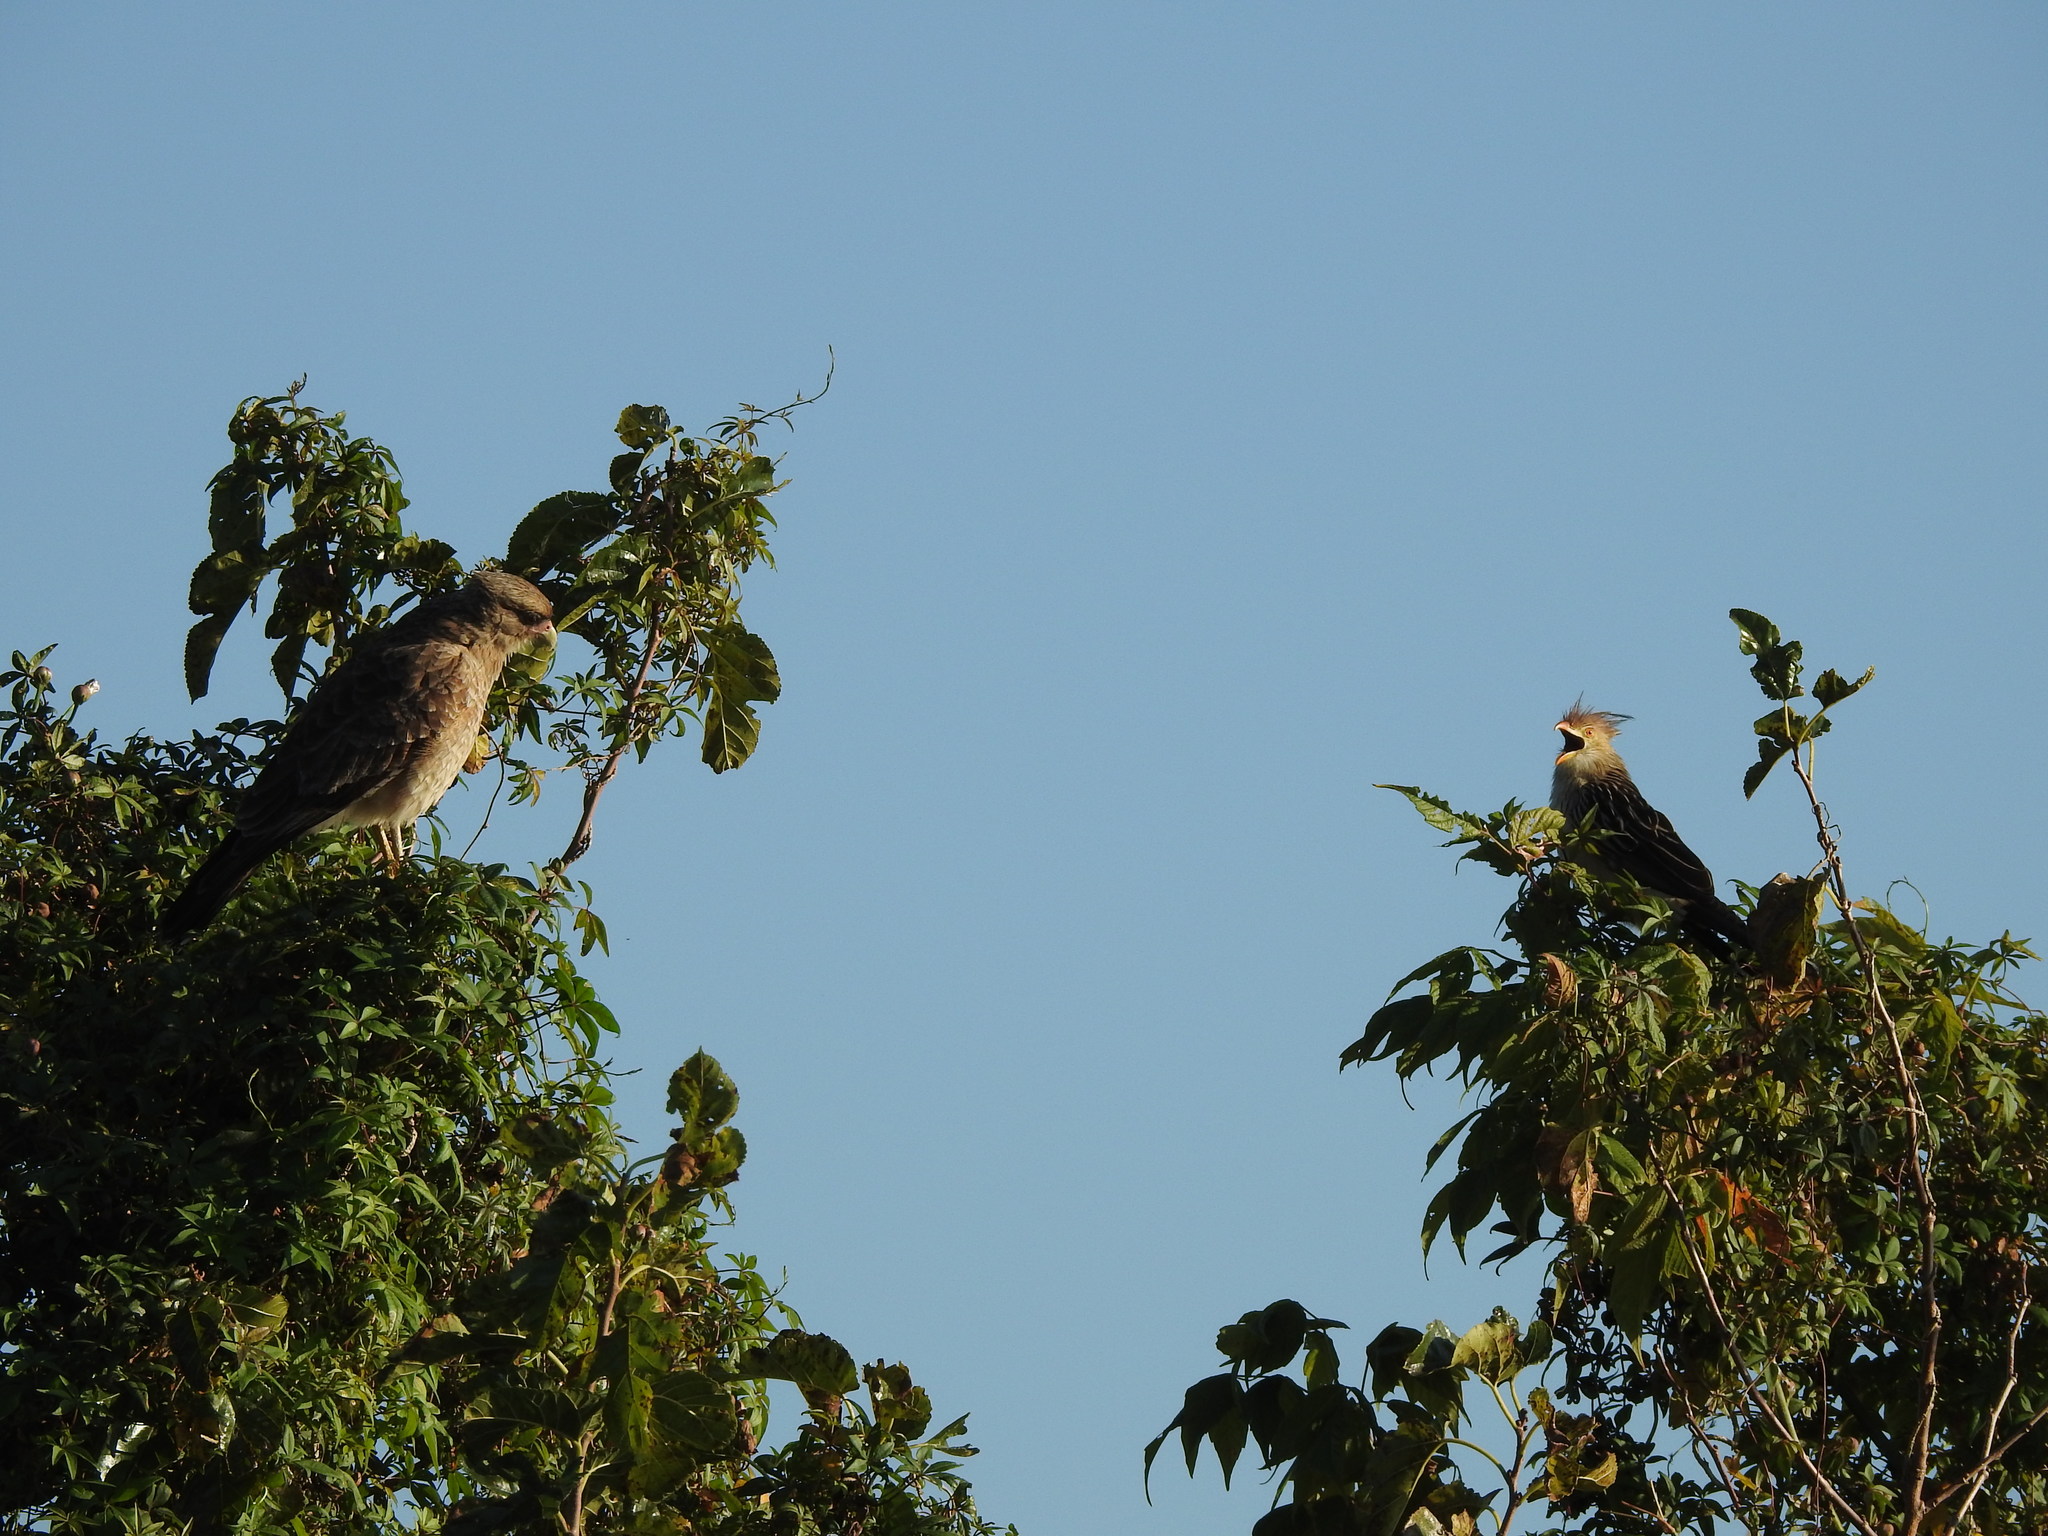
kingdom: Animalia
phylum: Chordata
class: Aves
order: Cuculiformes
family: Cuculidae
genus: Guira
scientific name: Guira guira
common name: Guira cuckoo
